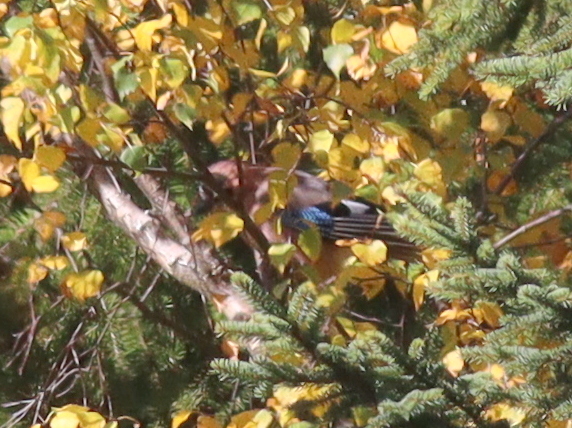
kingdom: Animalia
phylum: Chordata
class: Aves
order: Passeriformes
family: Corvidae
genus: Garrulus
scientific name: Garrulus glandarius
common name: Eurasian jay
